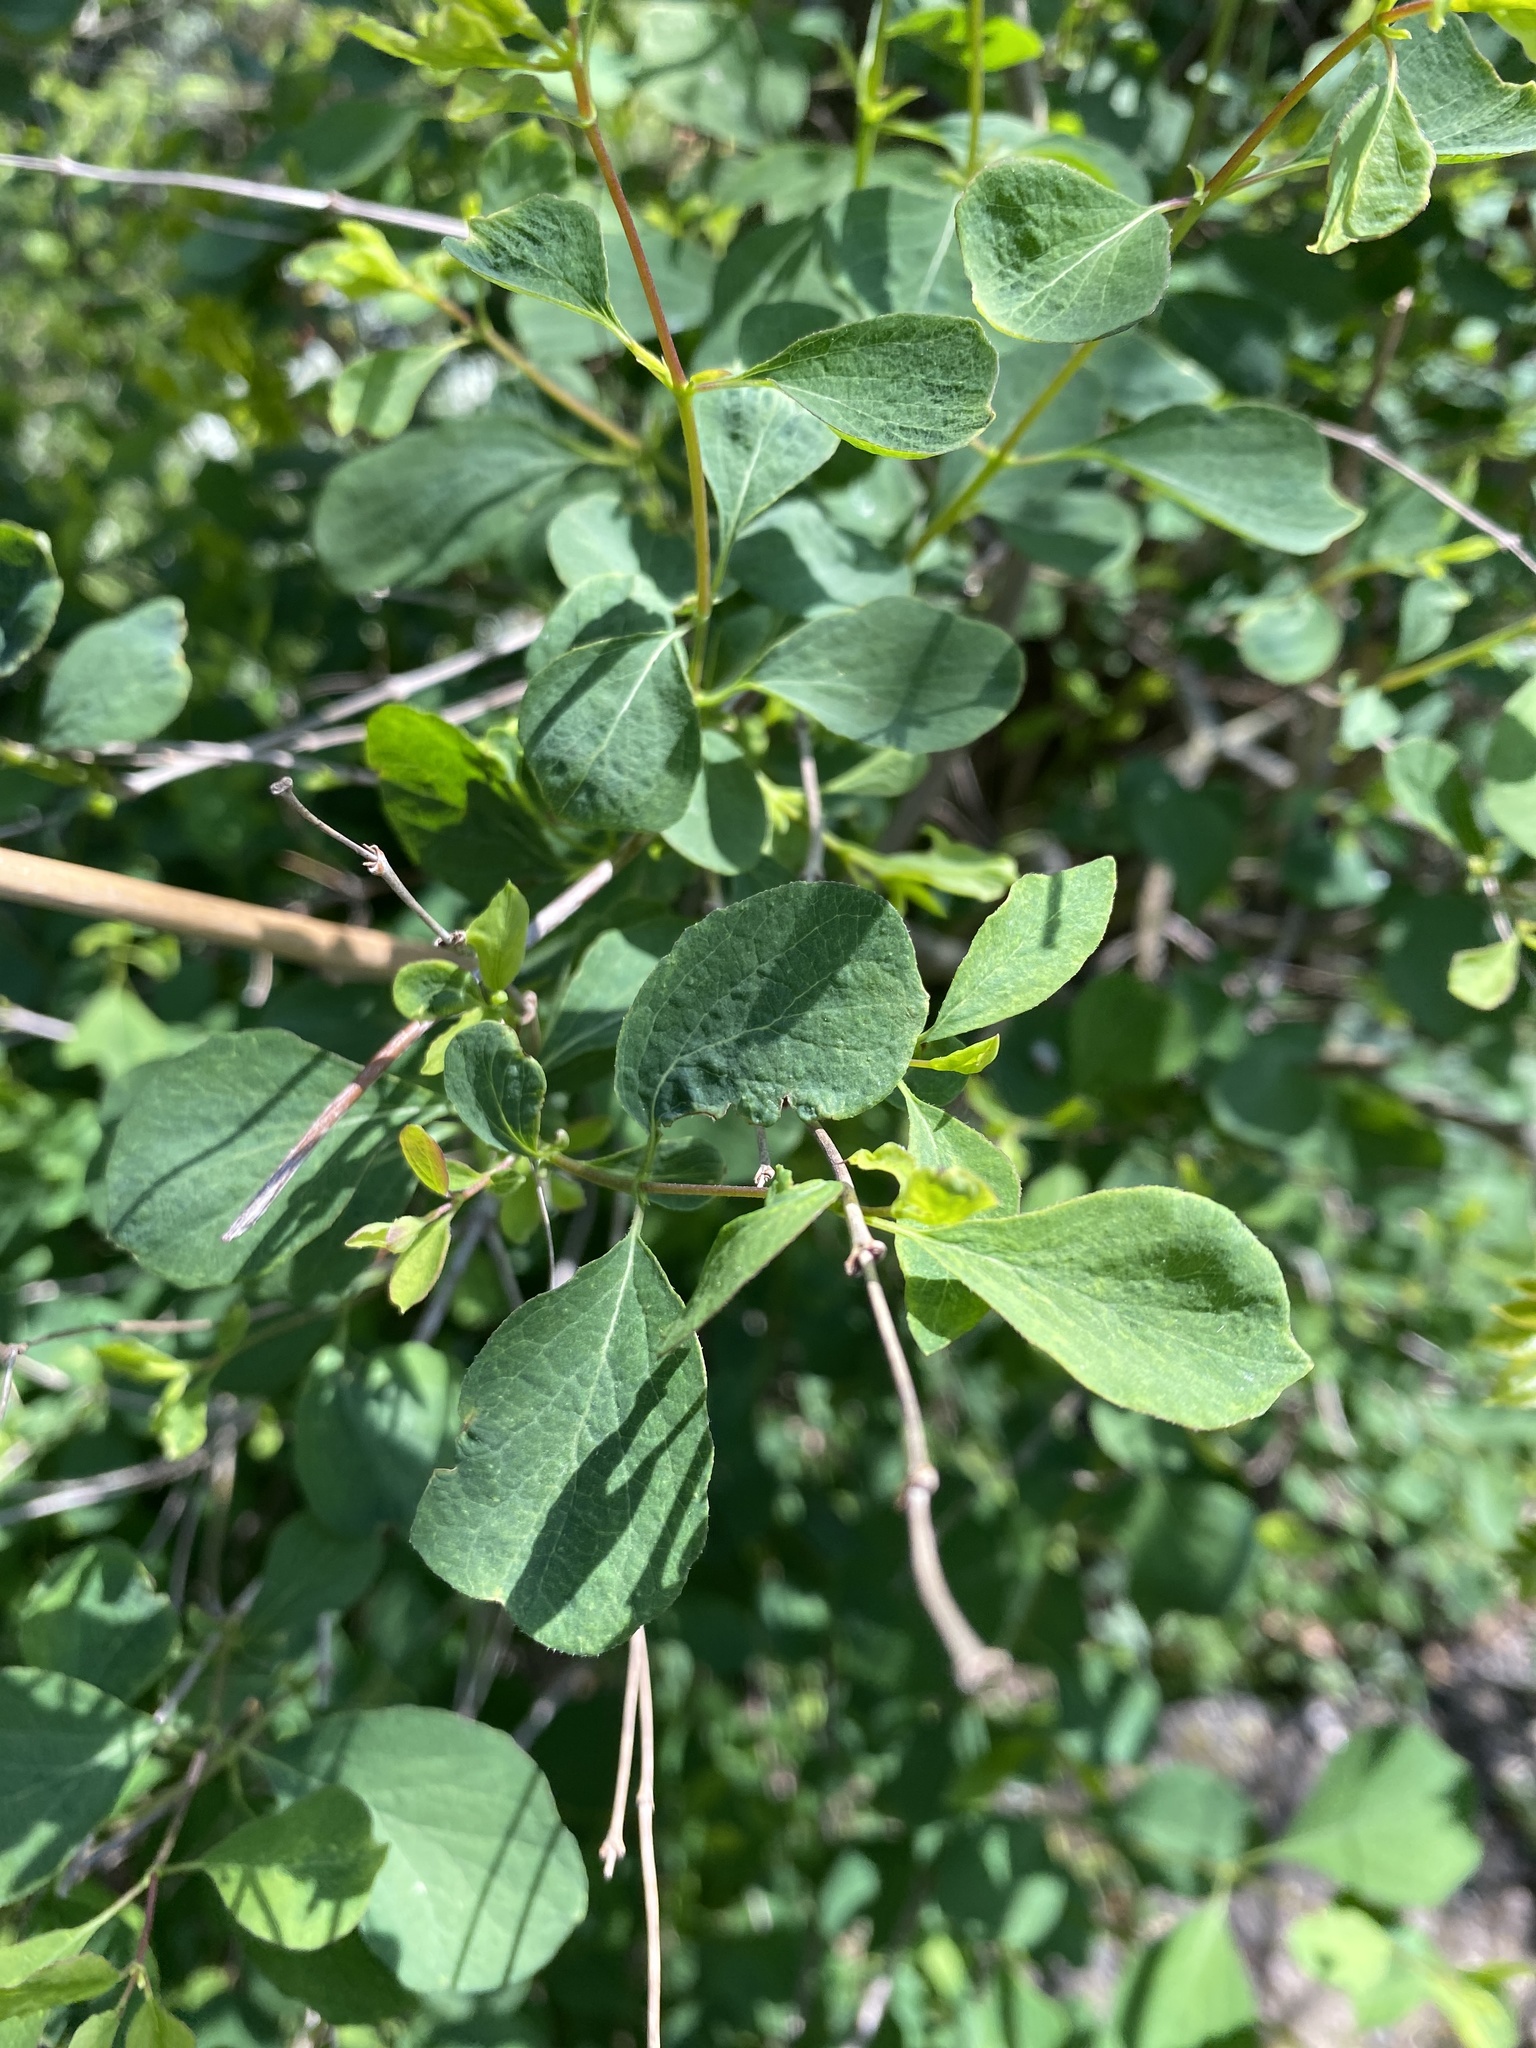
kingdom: Plantae
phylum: Tracheophyta
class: Magnoliopsida
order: Dipsacales
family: Caprifoliaceae
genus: Symphoricarpos
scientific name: Symphoricarpos albus
